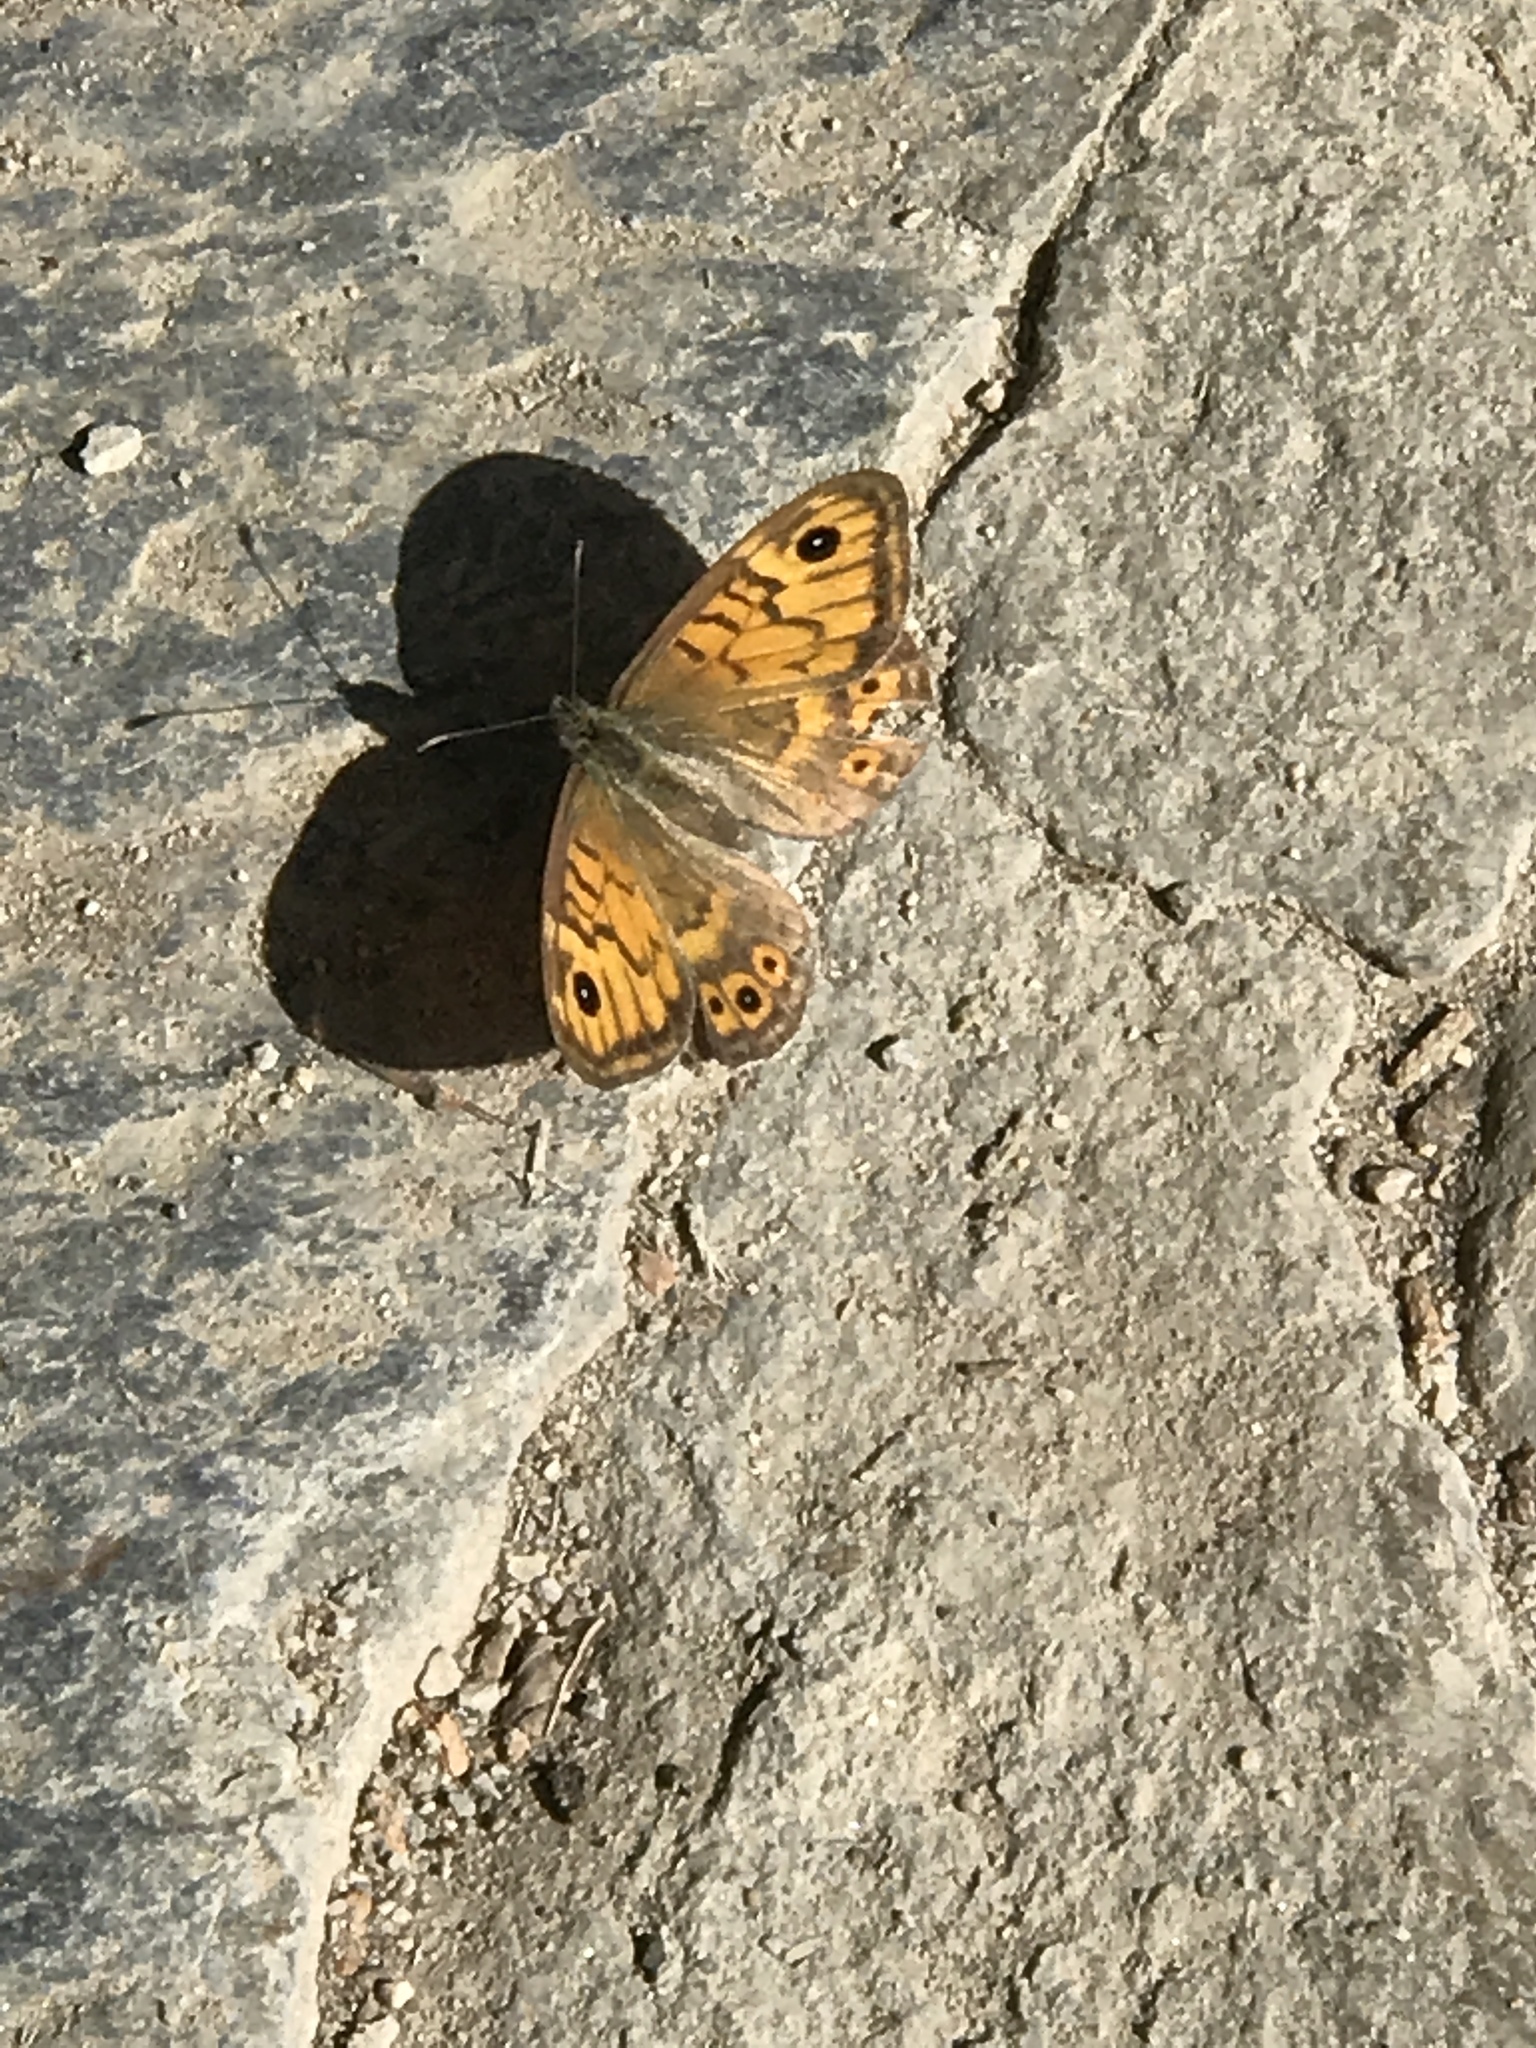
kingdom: Animalia
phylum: Arthropoda
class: Insecta
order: Lepidoptera
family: Nymphalidae
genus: Pararge
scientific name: Pararge Lasiommata megera
